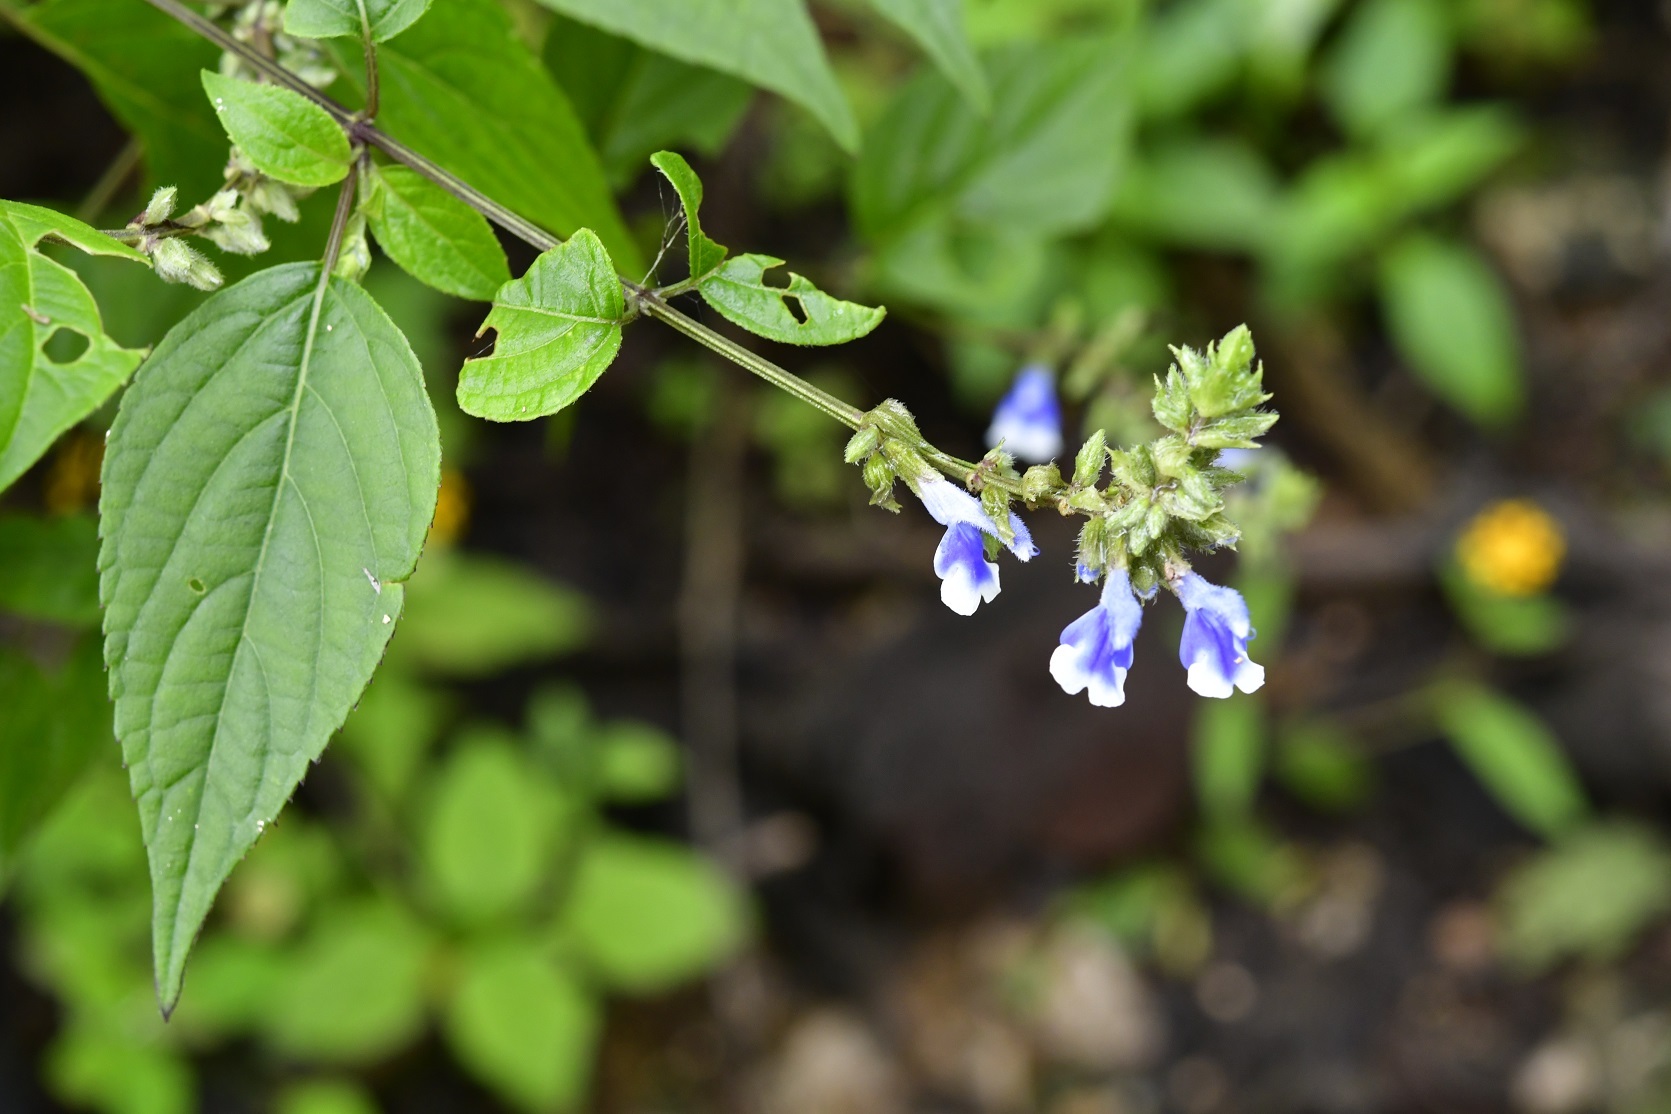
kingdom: Plantae
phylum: Tracheophyta
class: Magnoliopsida
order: Lamiales
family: Lamiaceae
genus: Salvia
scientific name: Salvia connivens
